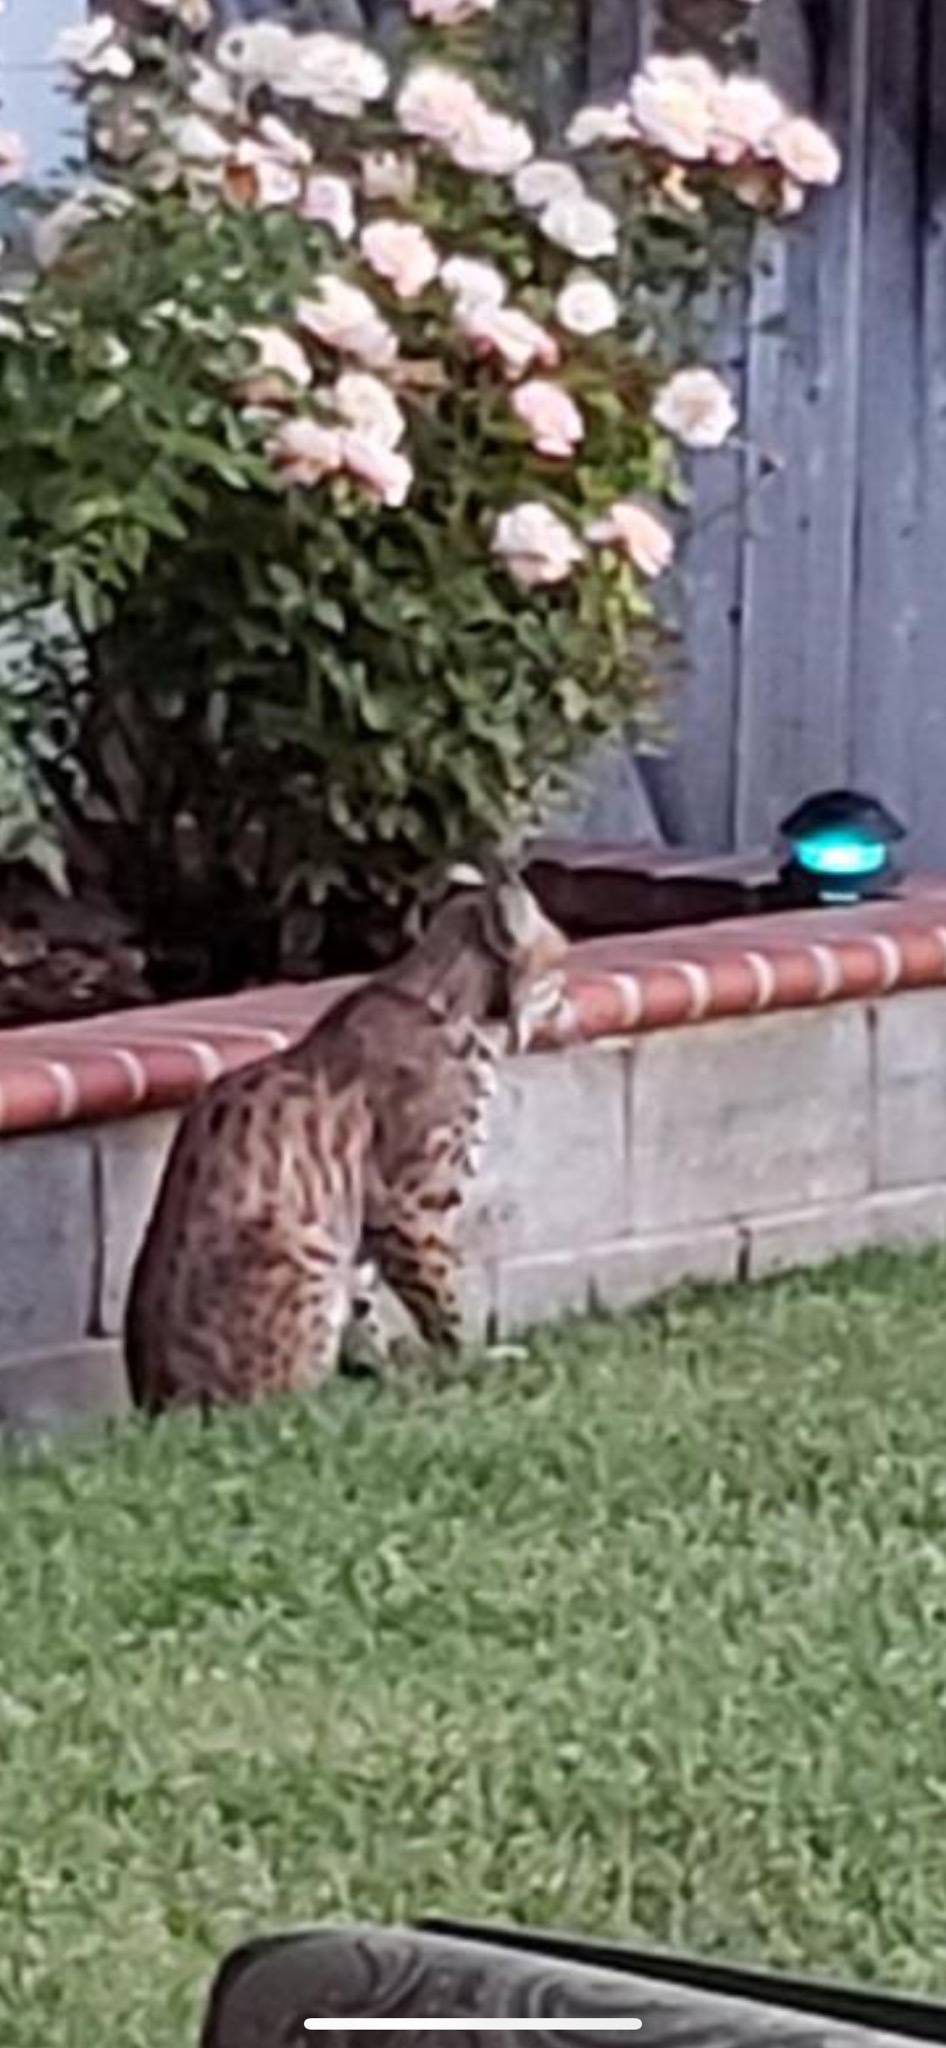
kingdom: Animalia
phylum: Chordata
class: Mammalia
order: Carnivora
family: Felidae
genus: Lynx
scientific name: Lynx rufus
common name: Bobcat
